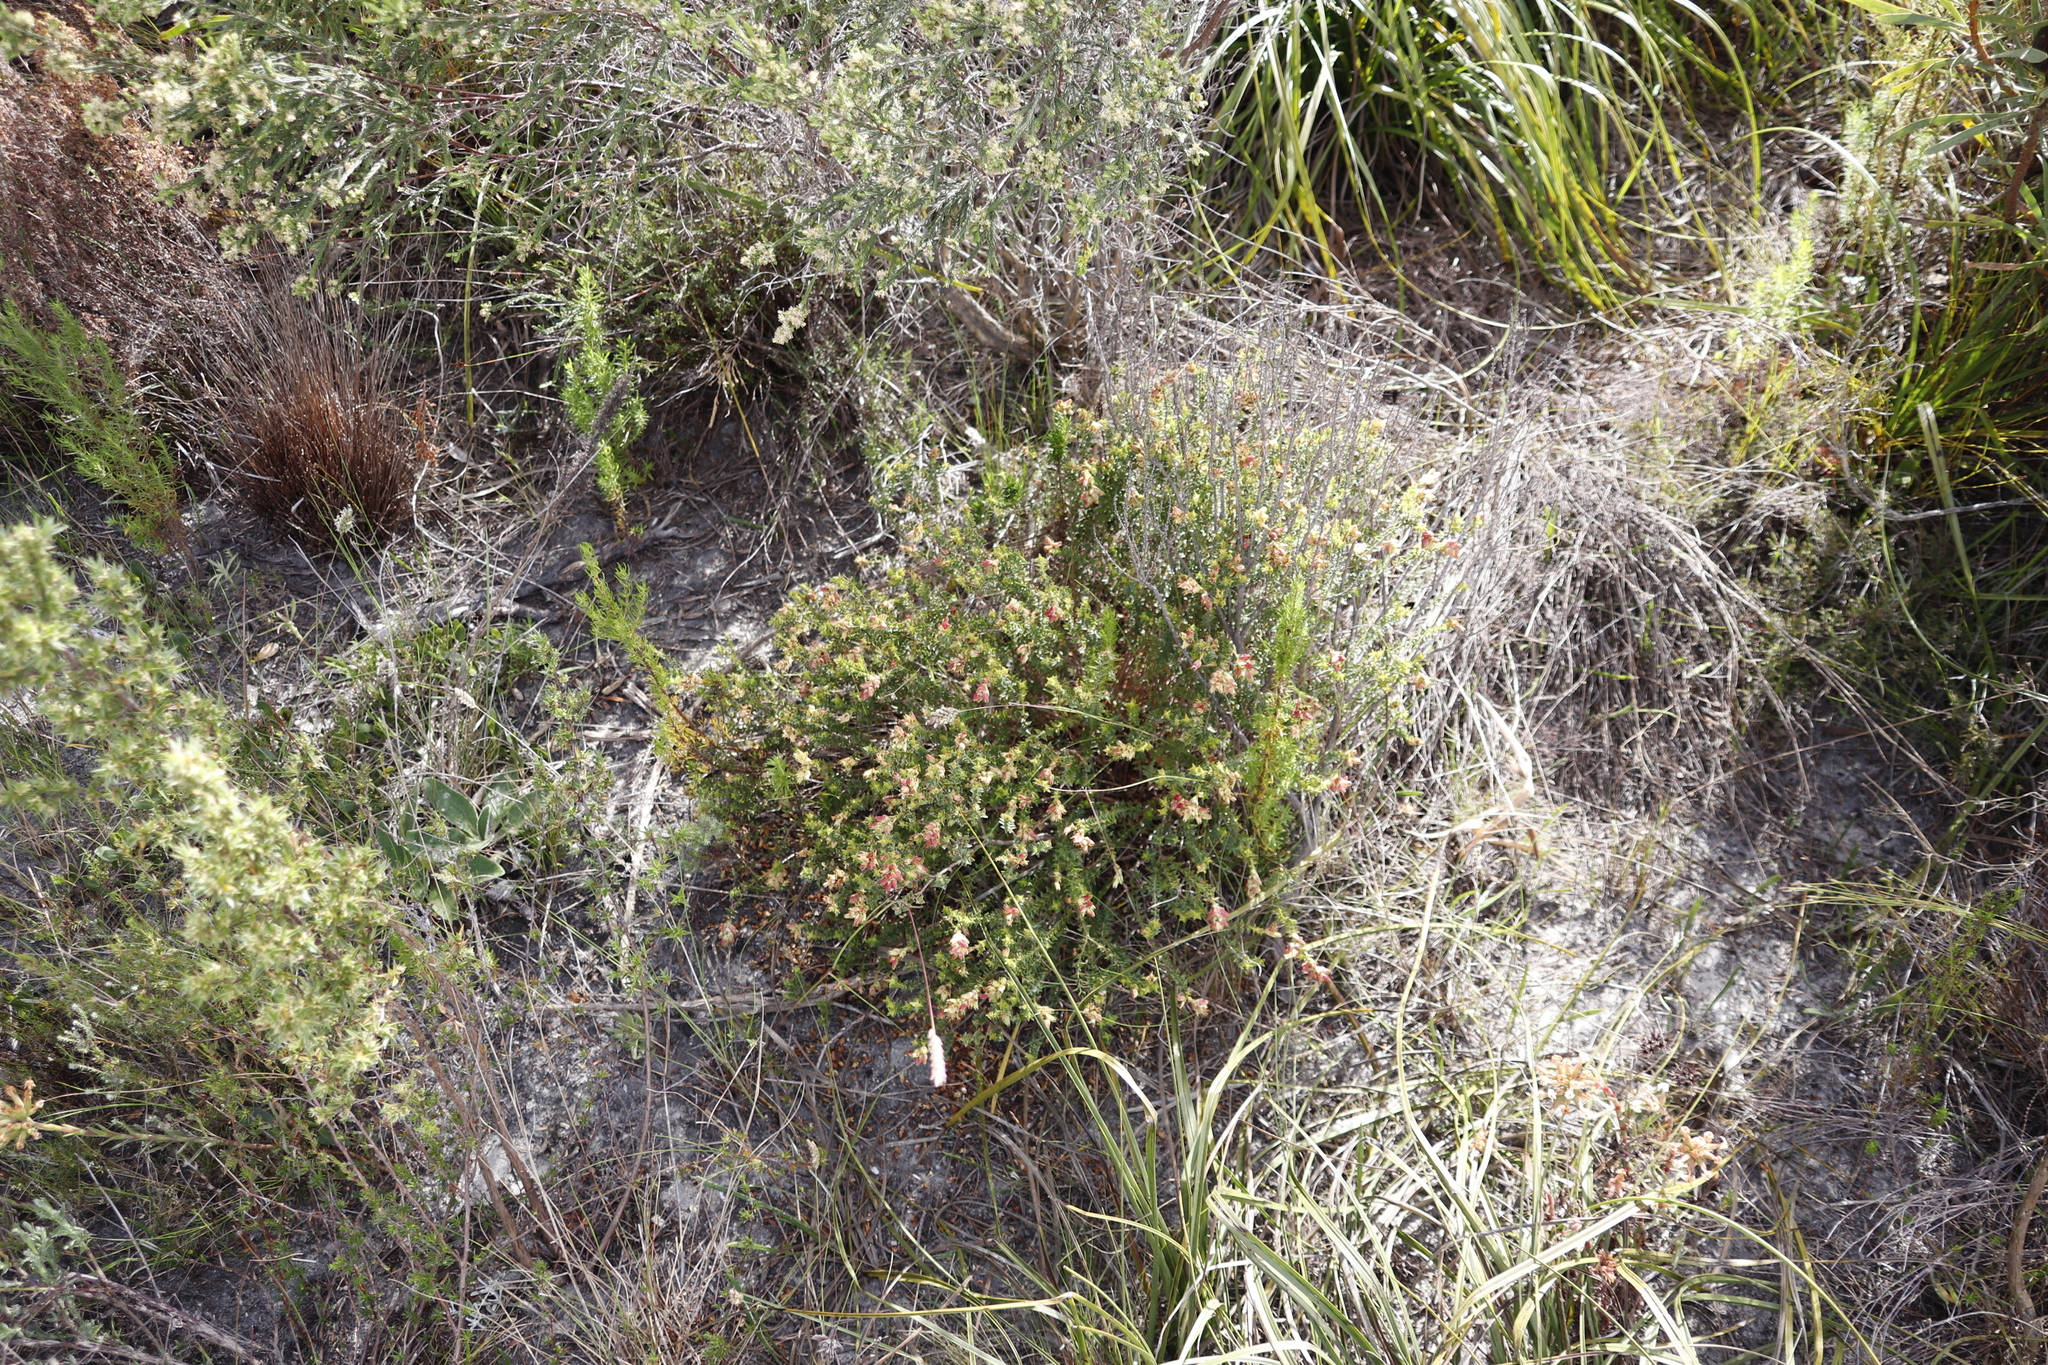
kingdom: Plantae
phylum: Tracheophyta
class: Magnoliopsida
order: Myrtales
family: Penaeaceae
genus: Penaea
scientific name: Penaea mucronata
